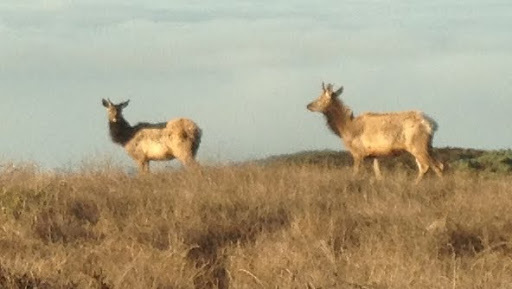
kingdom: Animalia
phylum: Chordata
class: Mammalia
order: Artiodactyla
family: Cervidae
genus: Cervus
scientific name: Cervus elaphus
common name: Red deer
